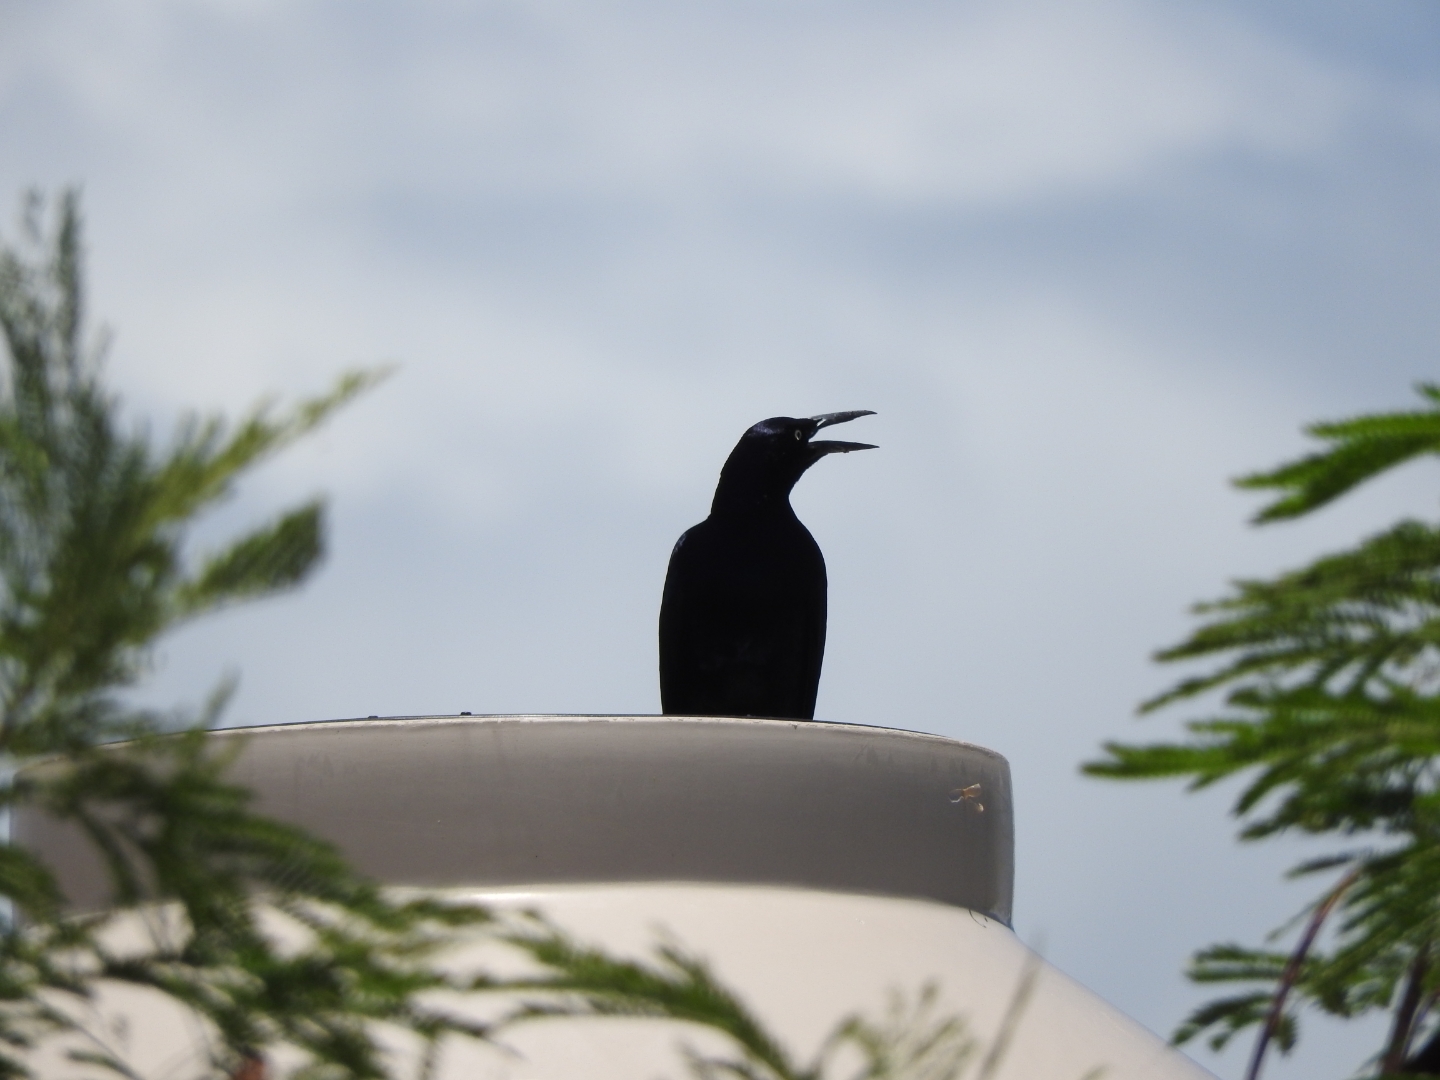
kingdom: Animalia
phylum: Chordata
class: Aves
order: Passeriformes
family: Icteridae
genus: Quiscalus
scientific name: Quiscalus mexicanus
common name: Great-tailed grackle
